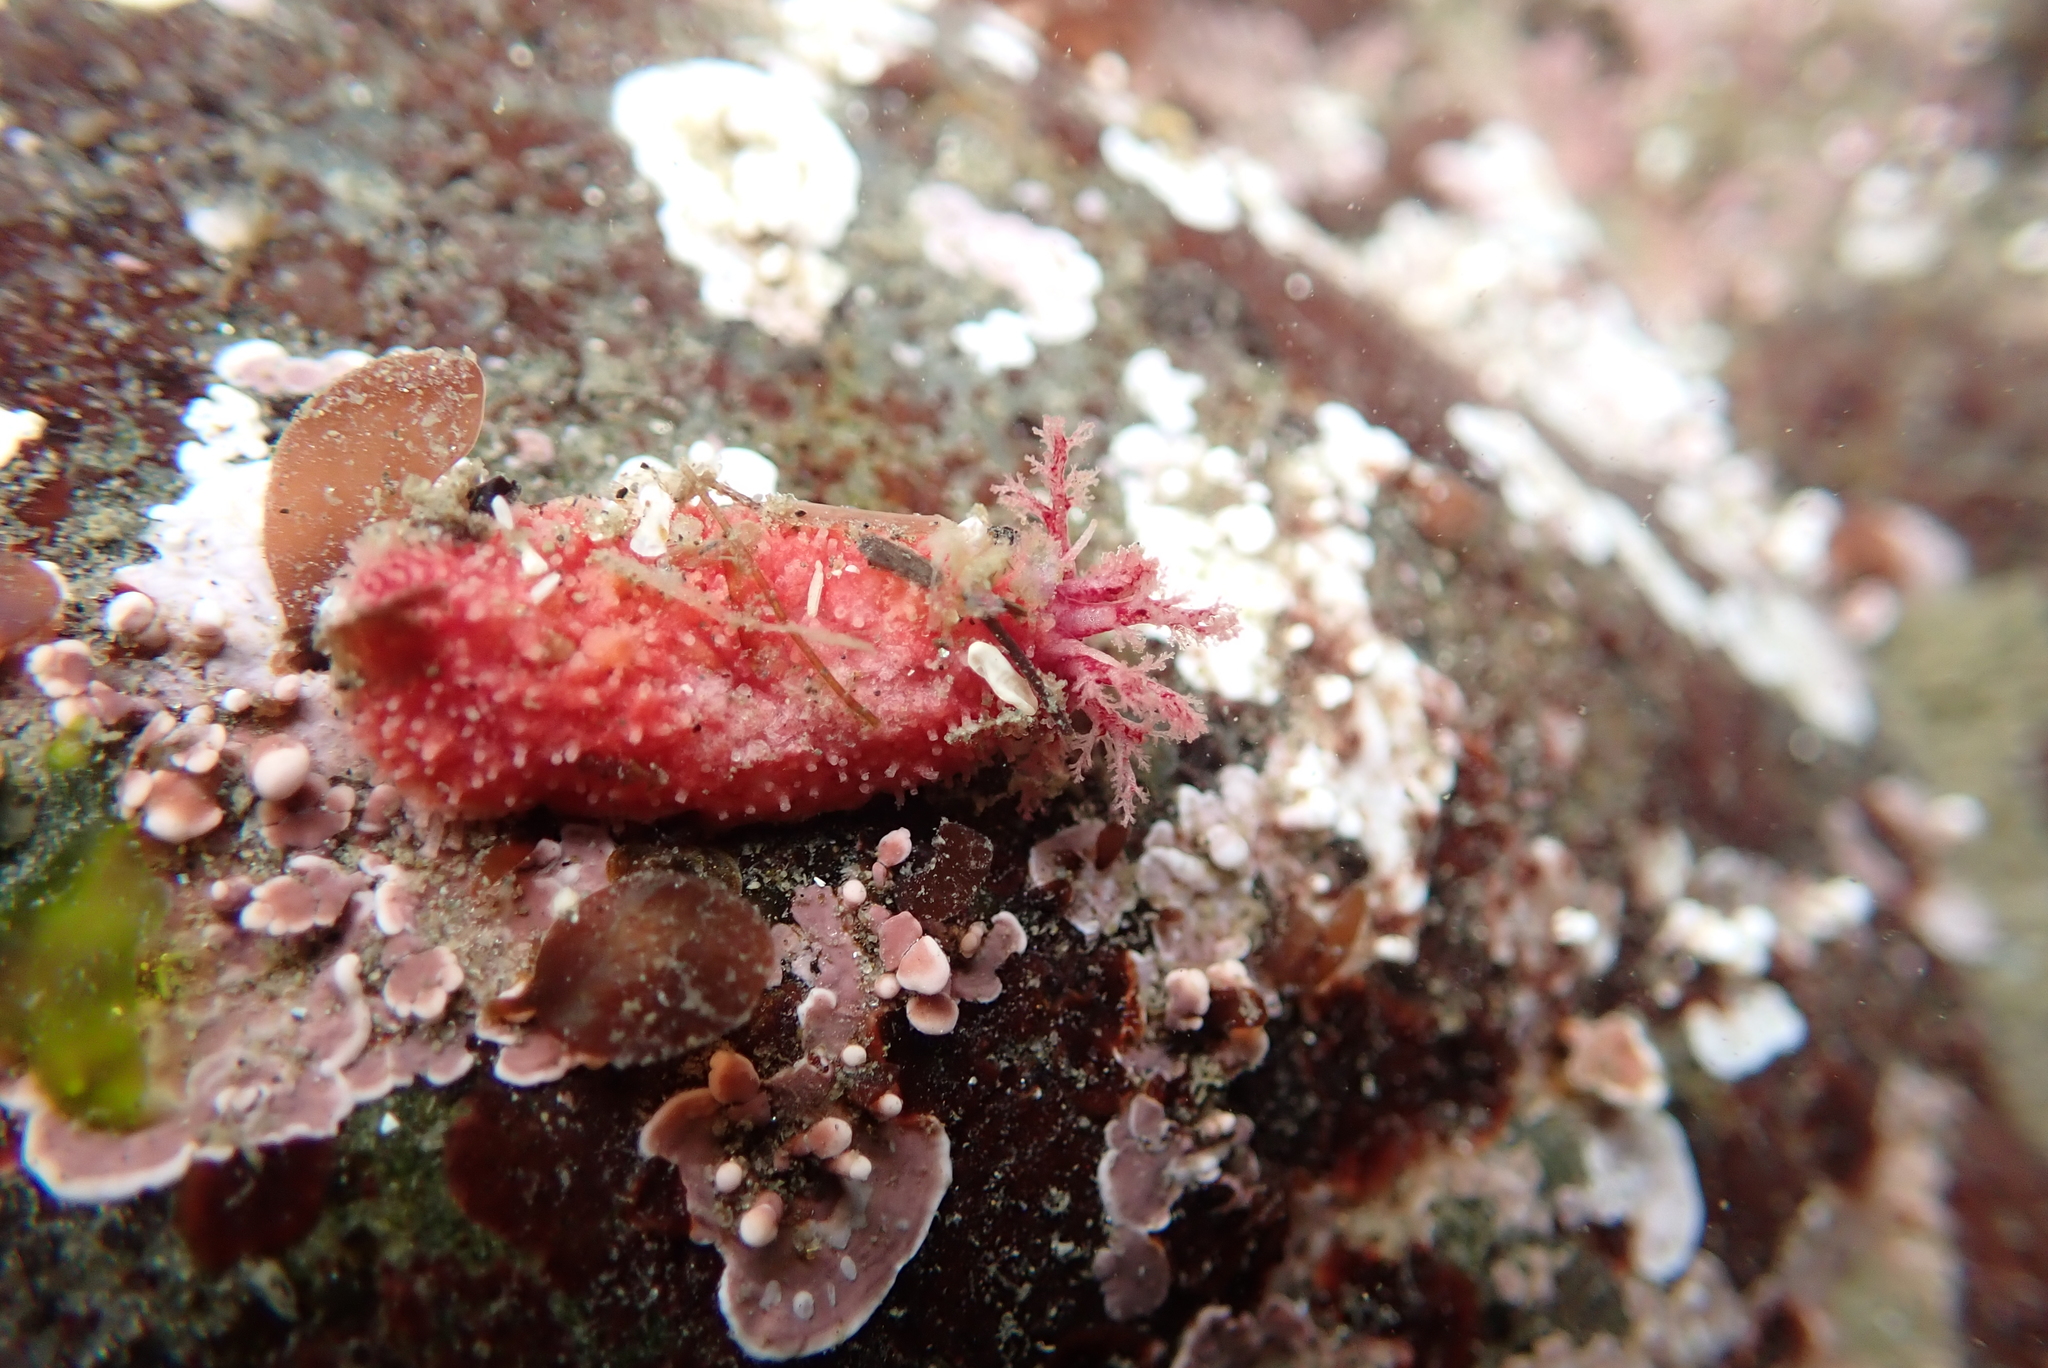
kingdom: Animalia
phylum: Echinodermata
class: Holothuroidea
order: Dendrochirotida
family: Psolidae
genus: Lissothuria
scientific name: Lissothuria nutriens
